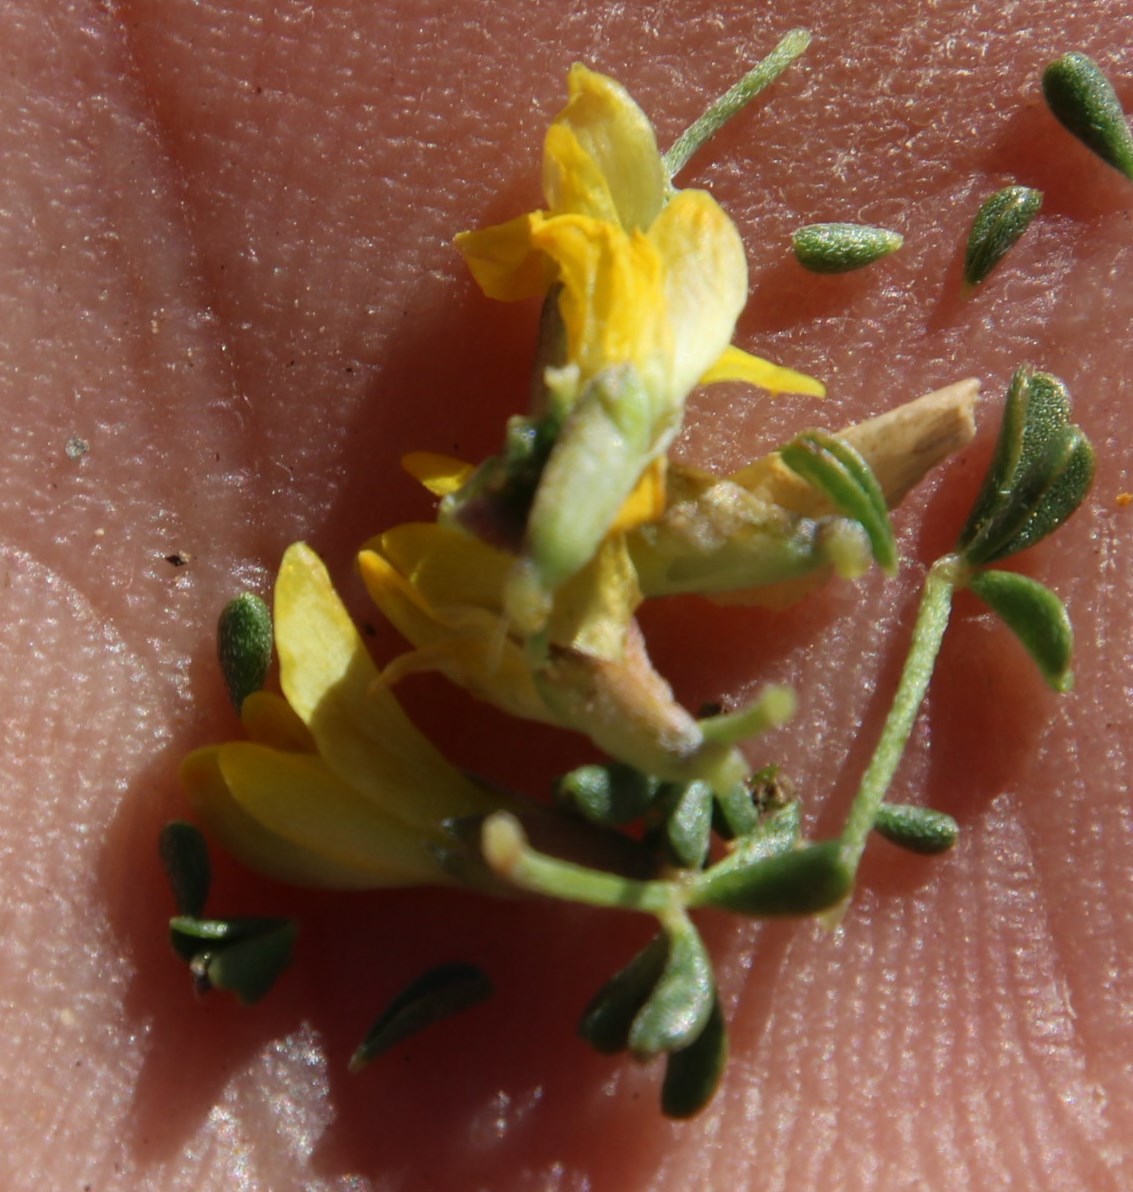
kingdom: Plantae
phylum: Tracheophyta
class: Magnoliopsida
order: Fabales
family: Fabaceae
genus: Leobordea
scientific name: Leobordea quinata
